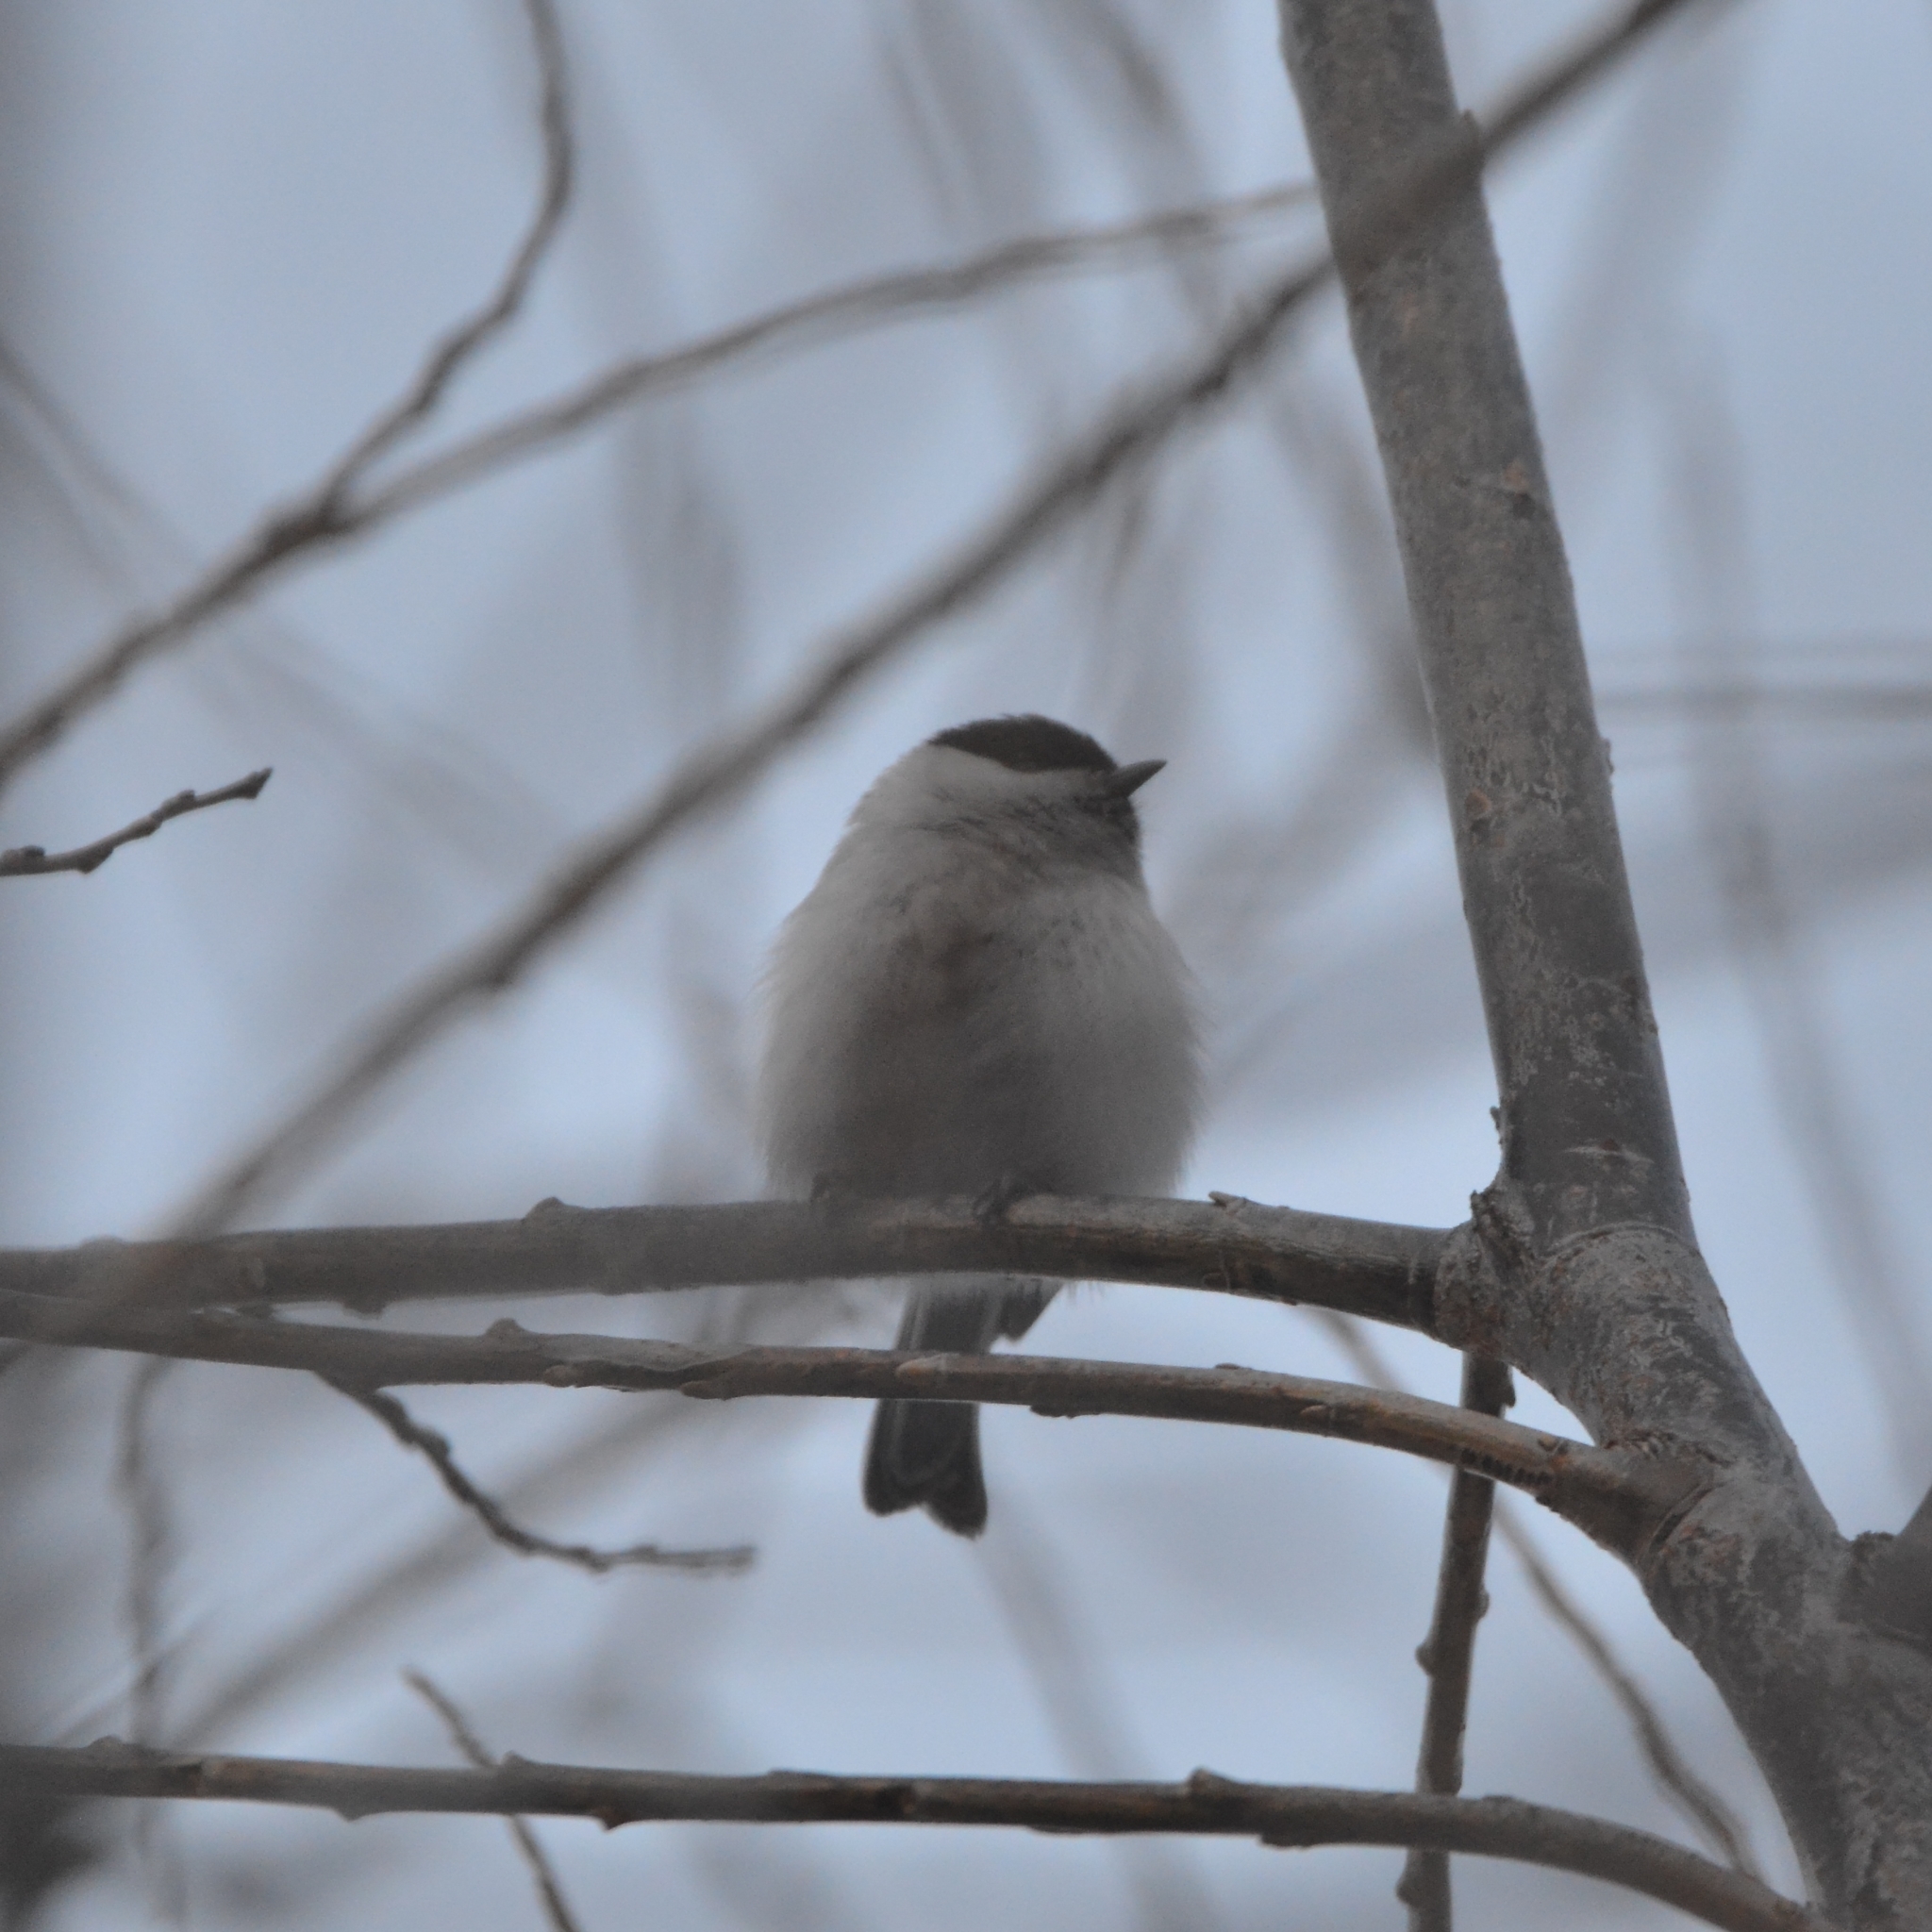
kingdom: Animalia
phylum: Chordata
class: Aves
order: Passeriformes
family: Paridae
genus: Poecile
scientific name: Poecile montanus
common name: Willow tit
